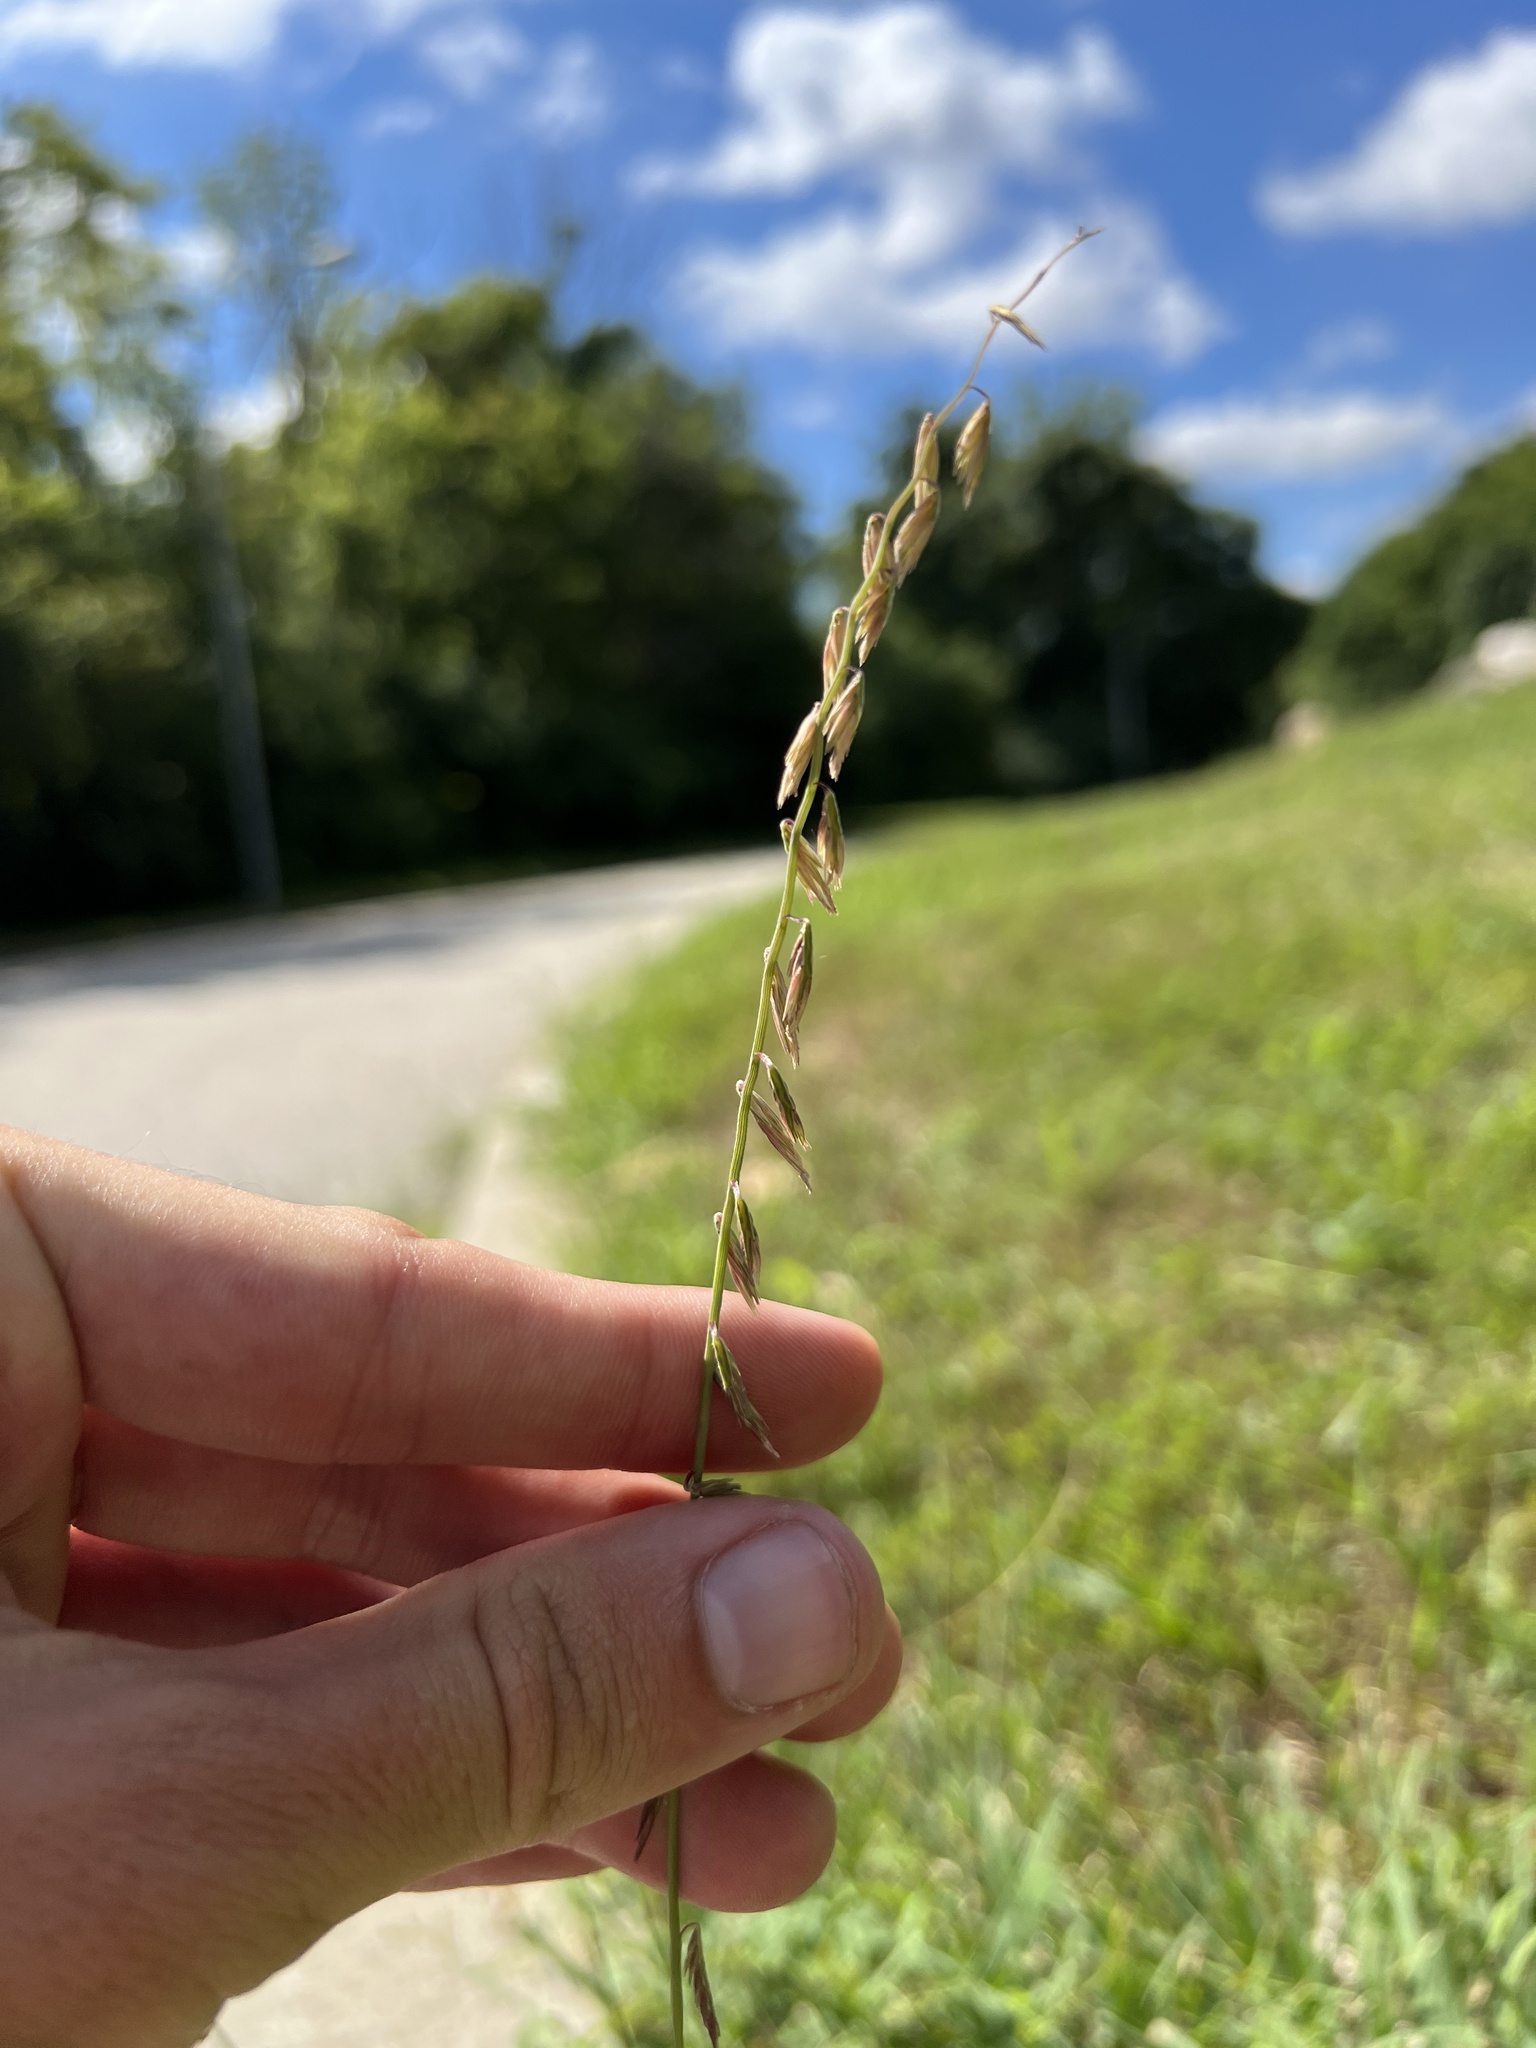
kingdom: Plantae
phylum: Tracheophyta
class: Liliopsida
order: Poales
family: Poaceae
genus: Bouteloua
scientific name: Bouteloua curtipendula
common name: Side-oats grama
